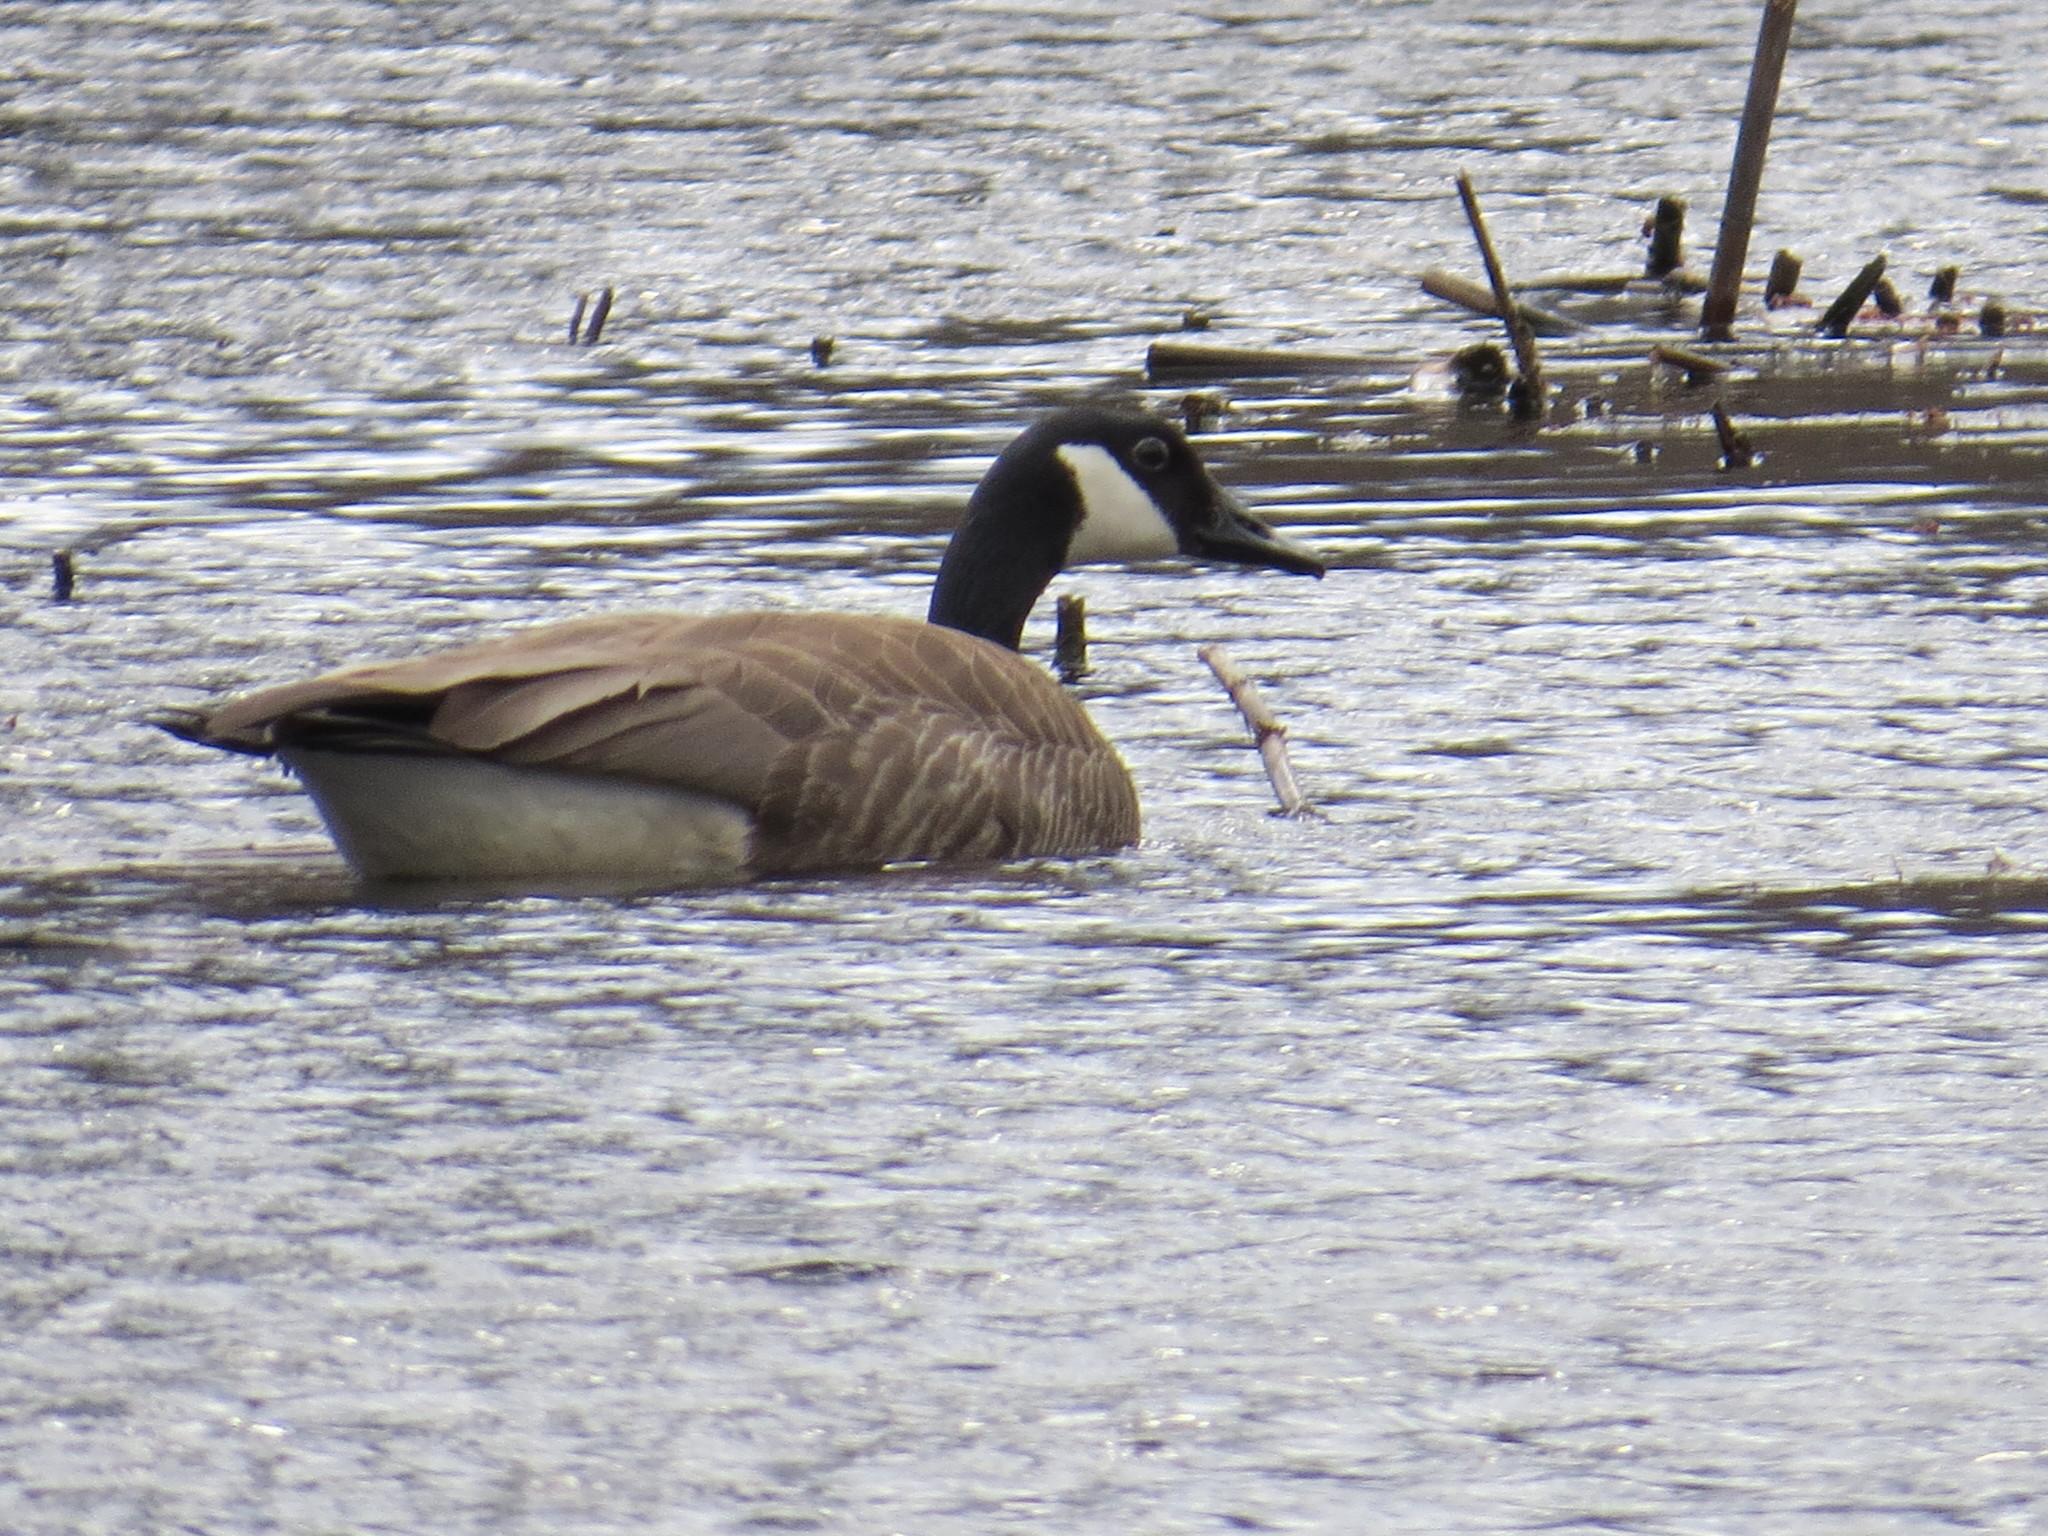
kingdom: Animalia
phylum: Chordata
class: Aves
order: Anseriformes
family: Anatidae
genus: Branta
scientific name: Branta canadensis
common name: Canada goose
